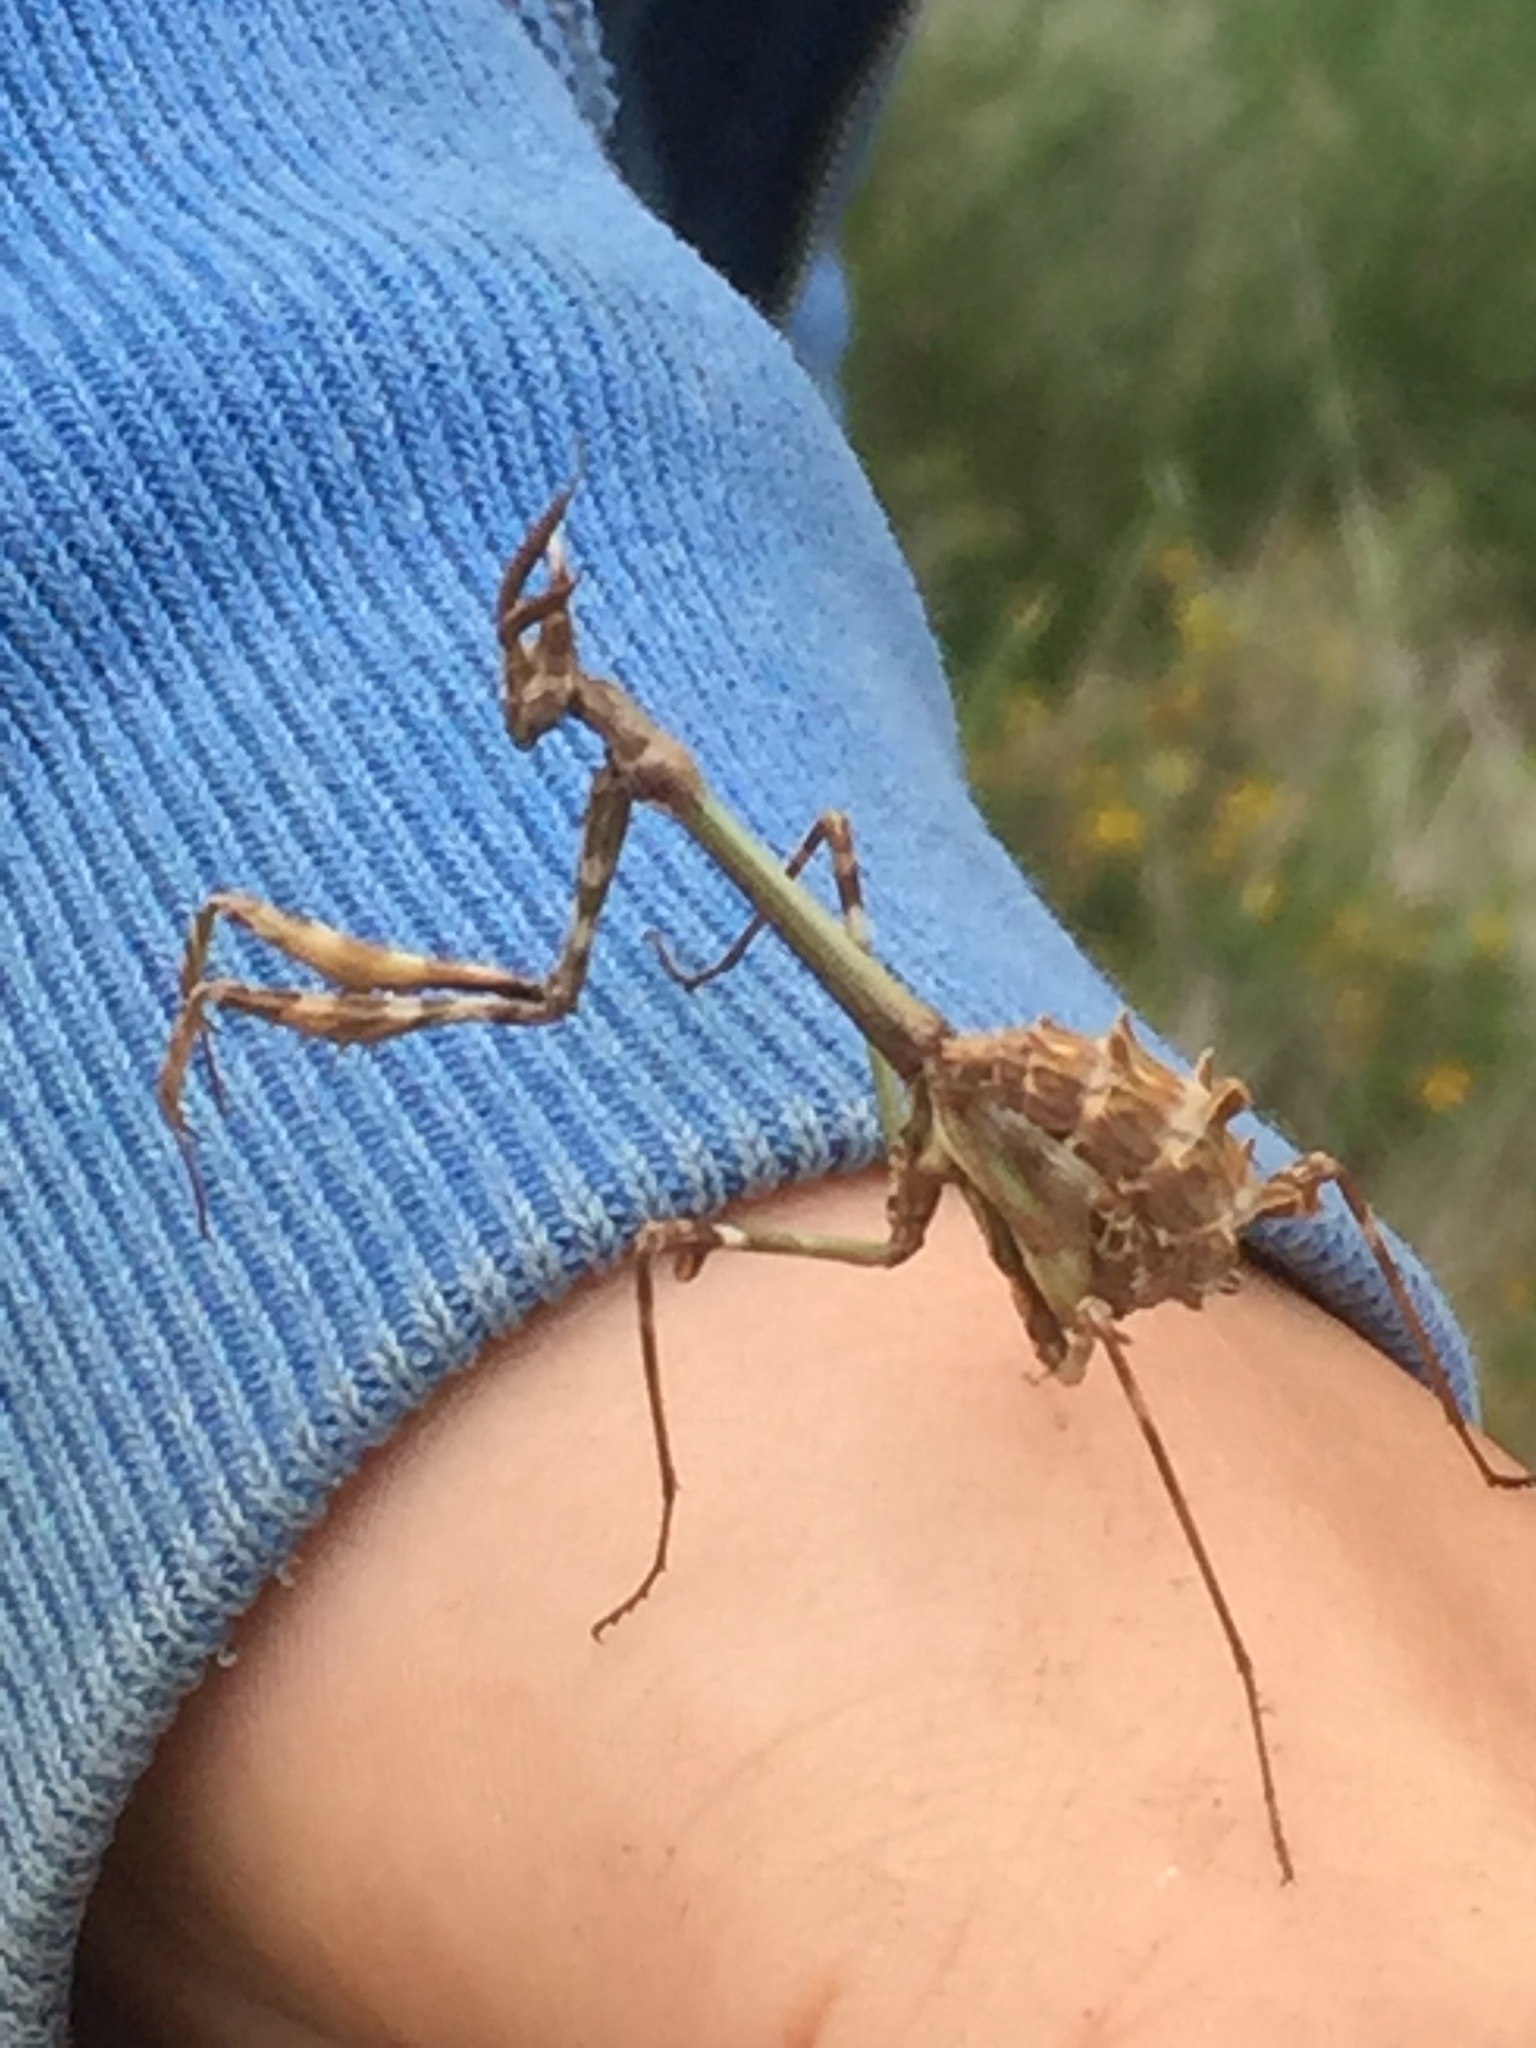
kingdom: Animalia
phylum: Arthropoda
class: Insecta
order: Mantodea
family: Empusidae
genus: Empusa
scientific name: Empusa pennata
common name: Conehead mantis
